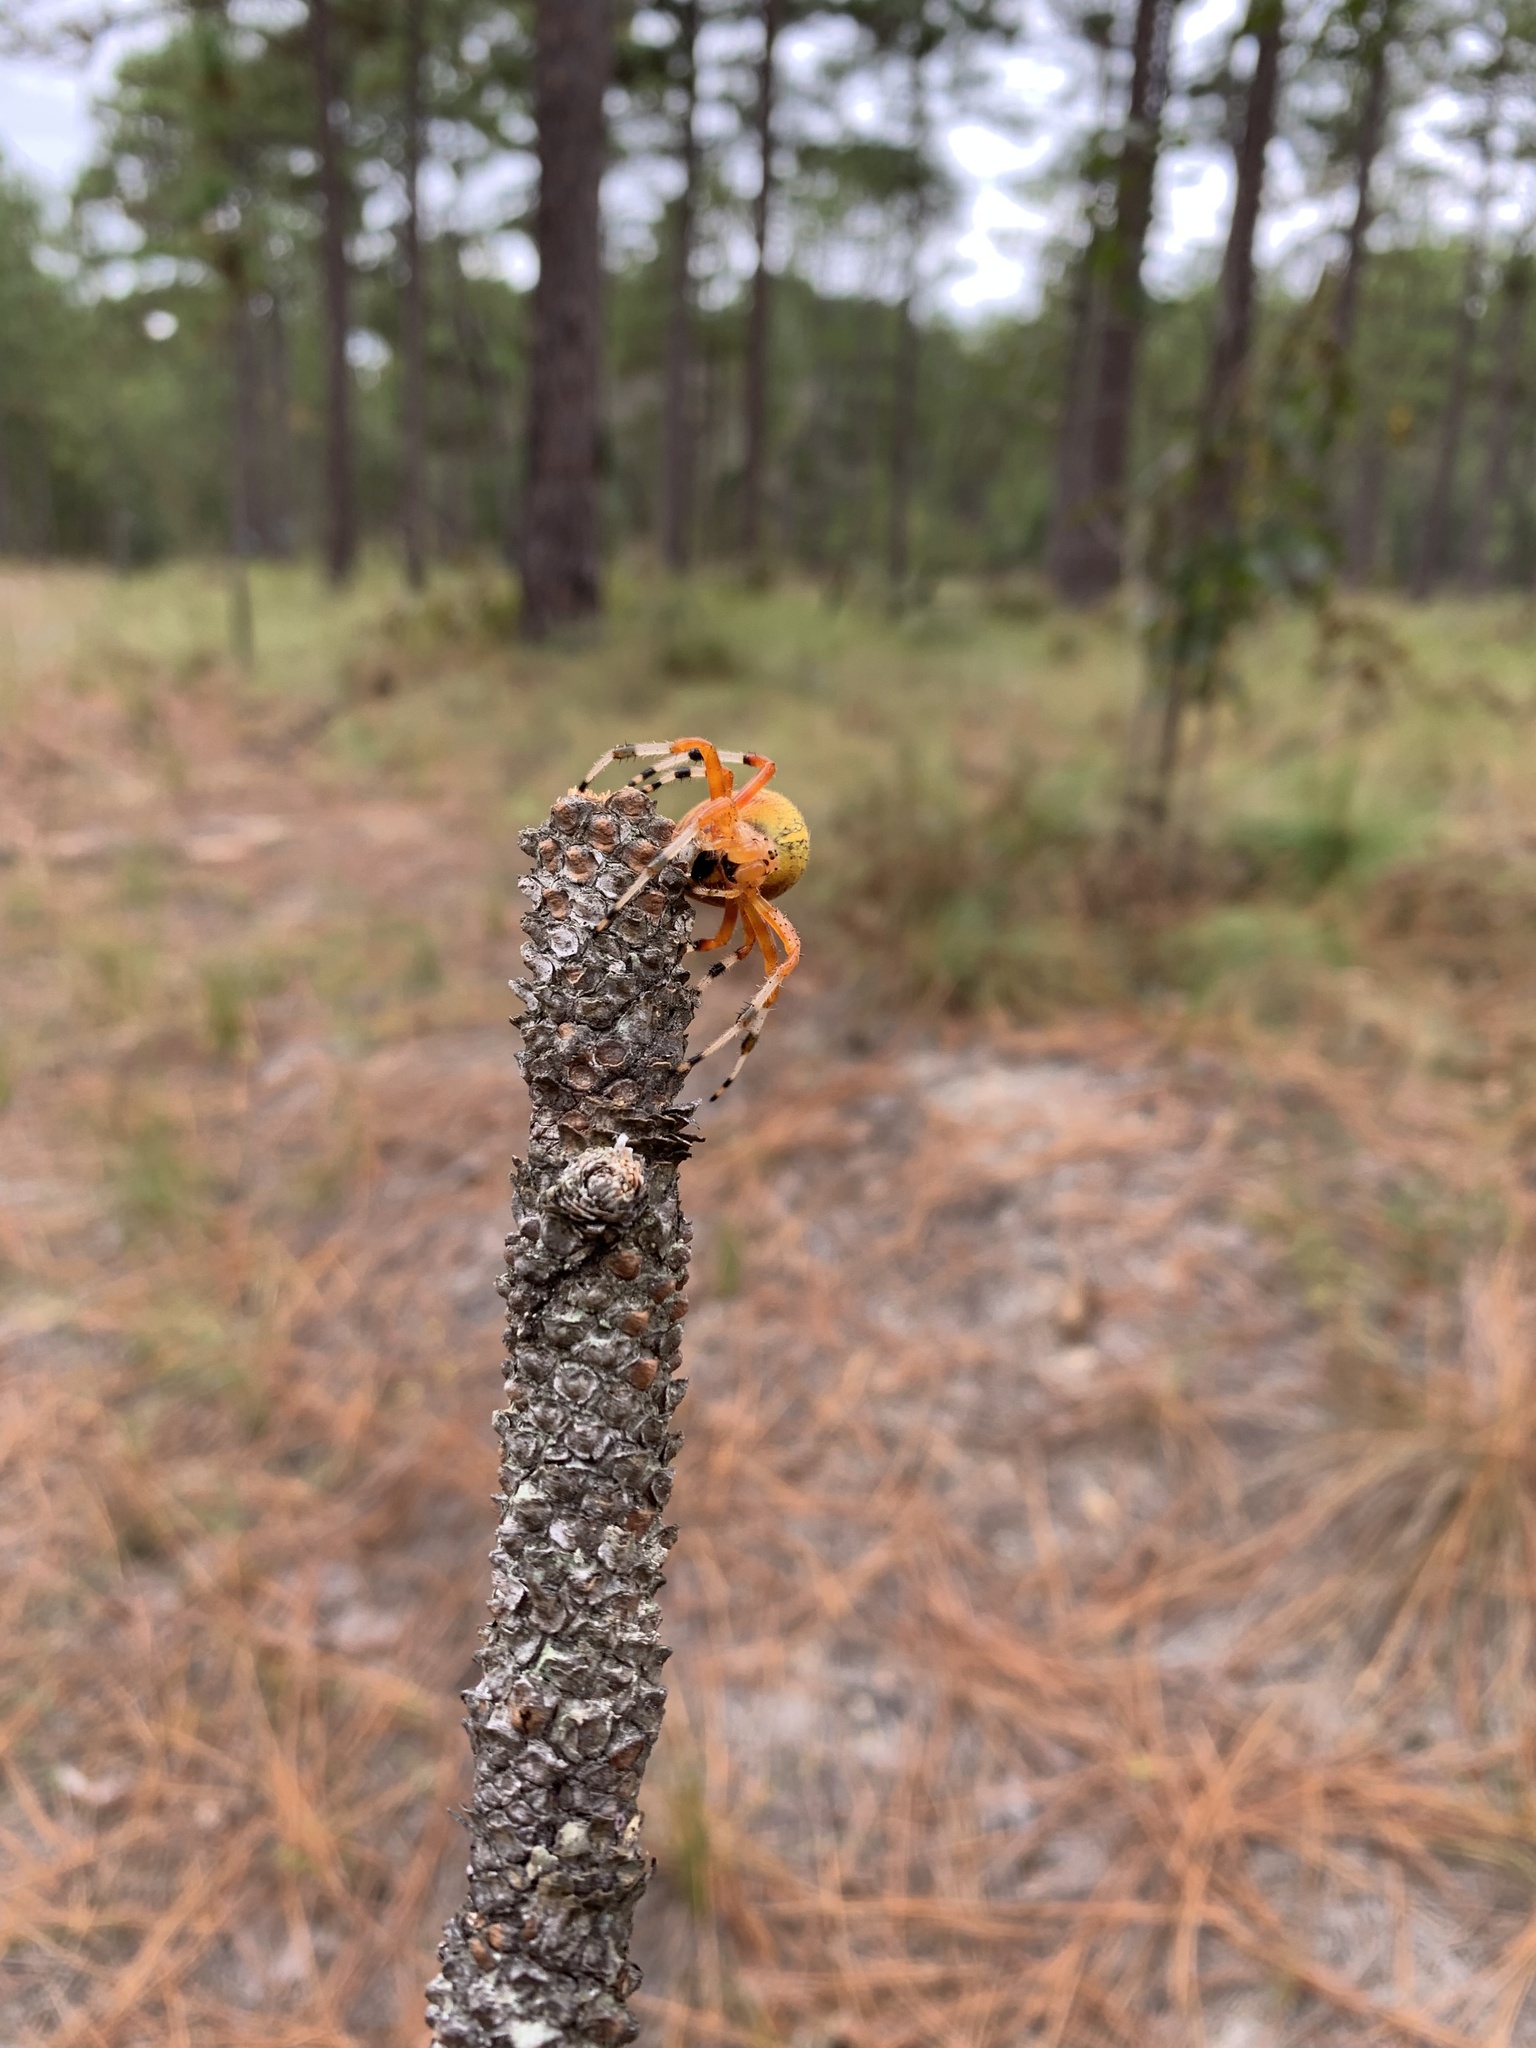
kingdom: Animalia
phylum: Arthropoda
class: Arachnida
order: Araneae
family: Araneidae
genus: Araneus
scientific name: Araneus marmoreus
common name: Marbled orbweaver
